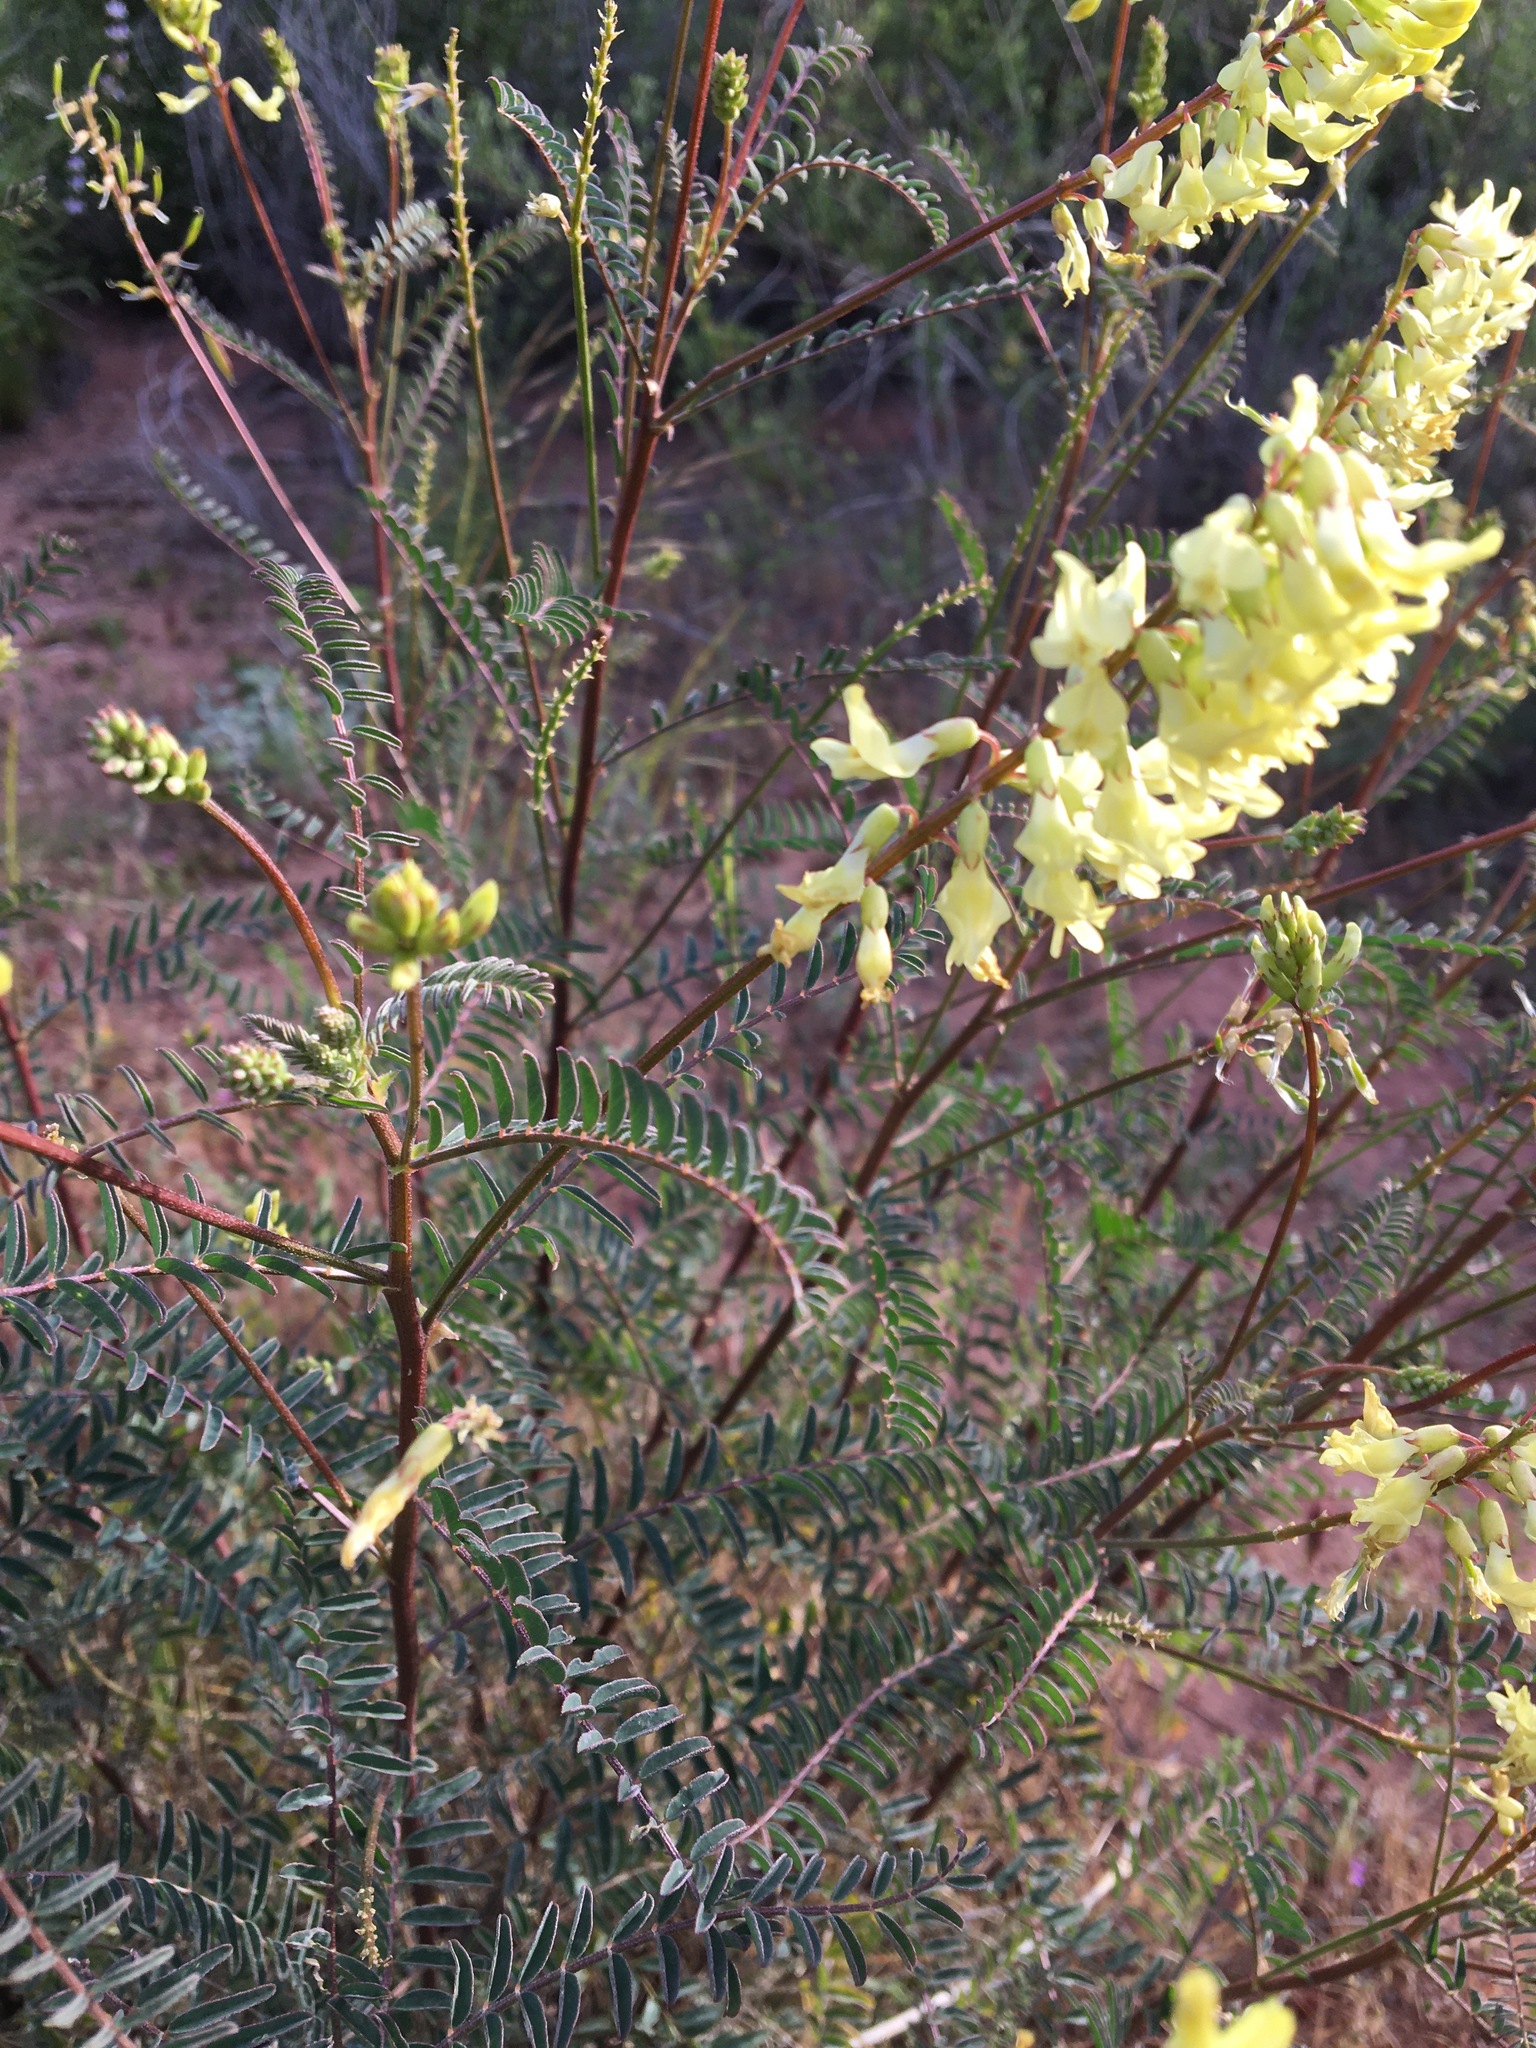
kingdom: Plantae
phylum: Tracheophyta
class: Magnoliopsida
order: Fabales
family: Fabaceae
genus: Astragalus
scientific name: Astragalus trichopodus
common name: Santa barbara milk-vetch
